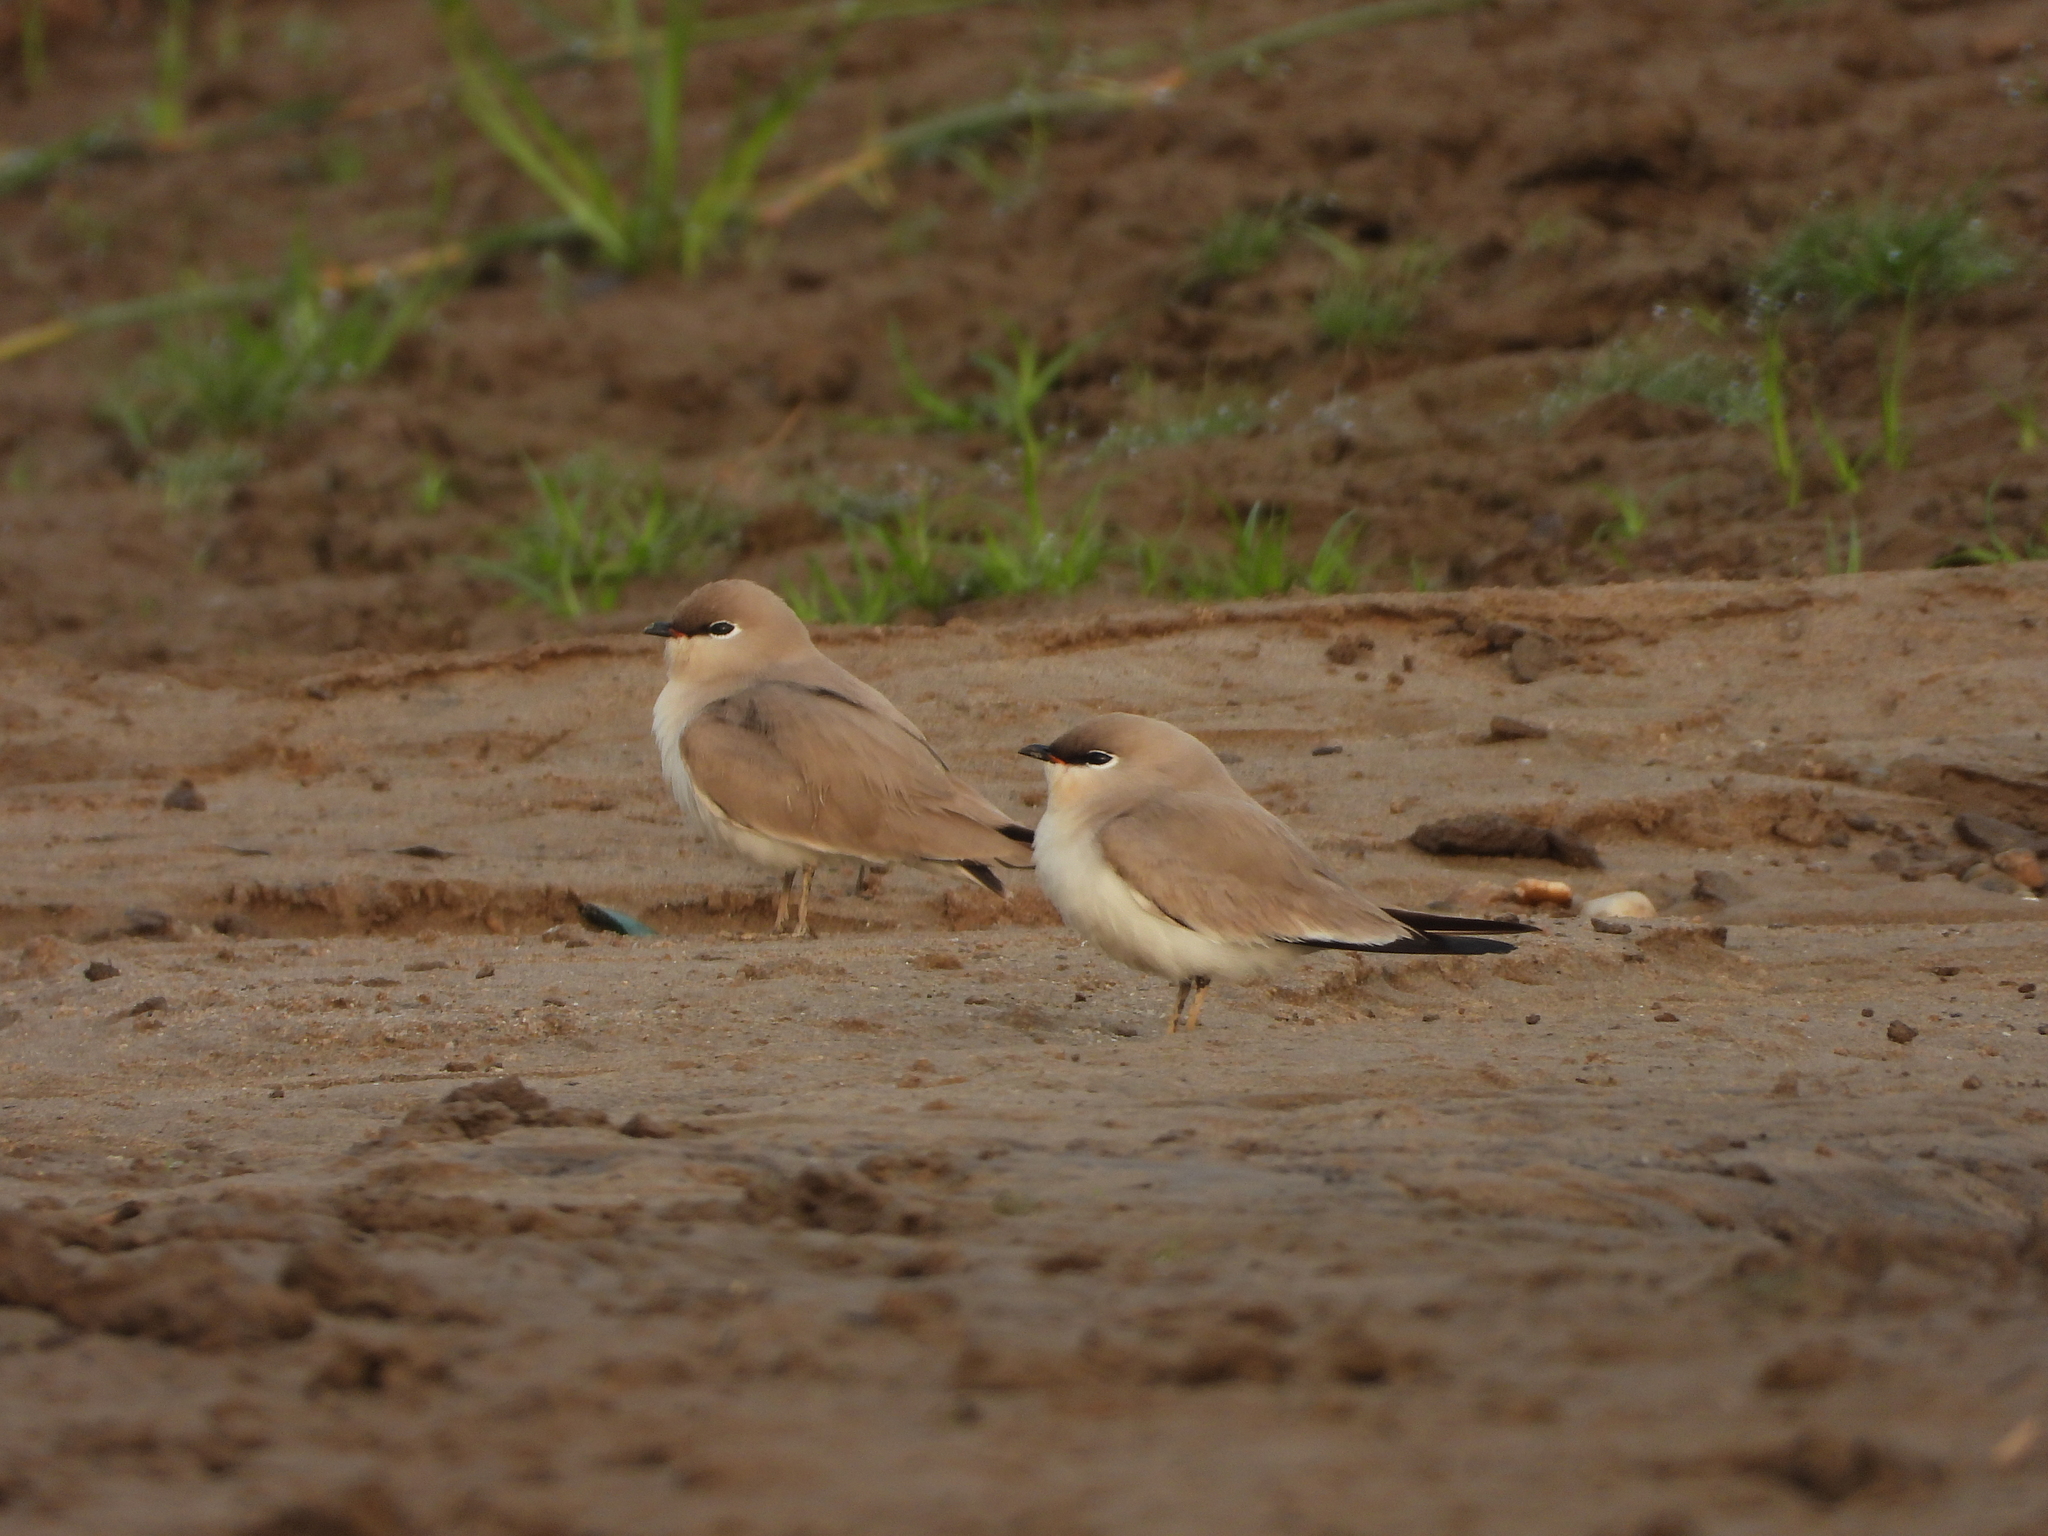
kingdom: Animalia
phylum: Chordata
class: Aves
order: Charadriiformes
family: Glareolidae
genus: Glareola
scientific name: Glareola lactea
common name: Small pratincole
